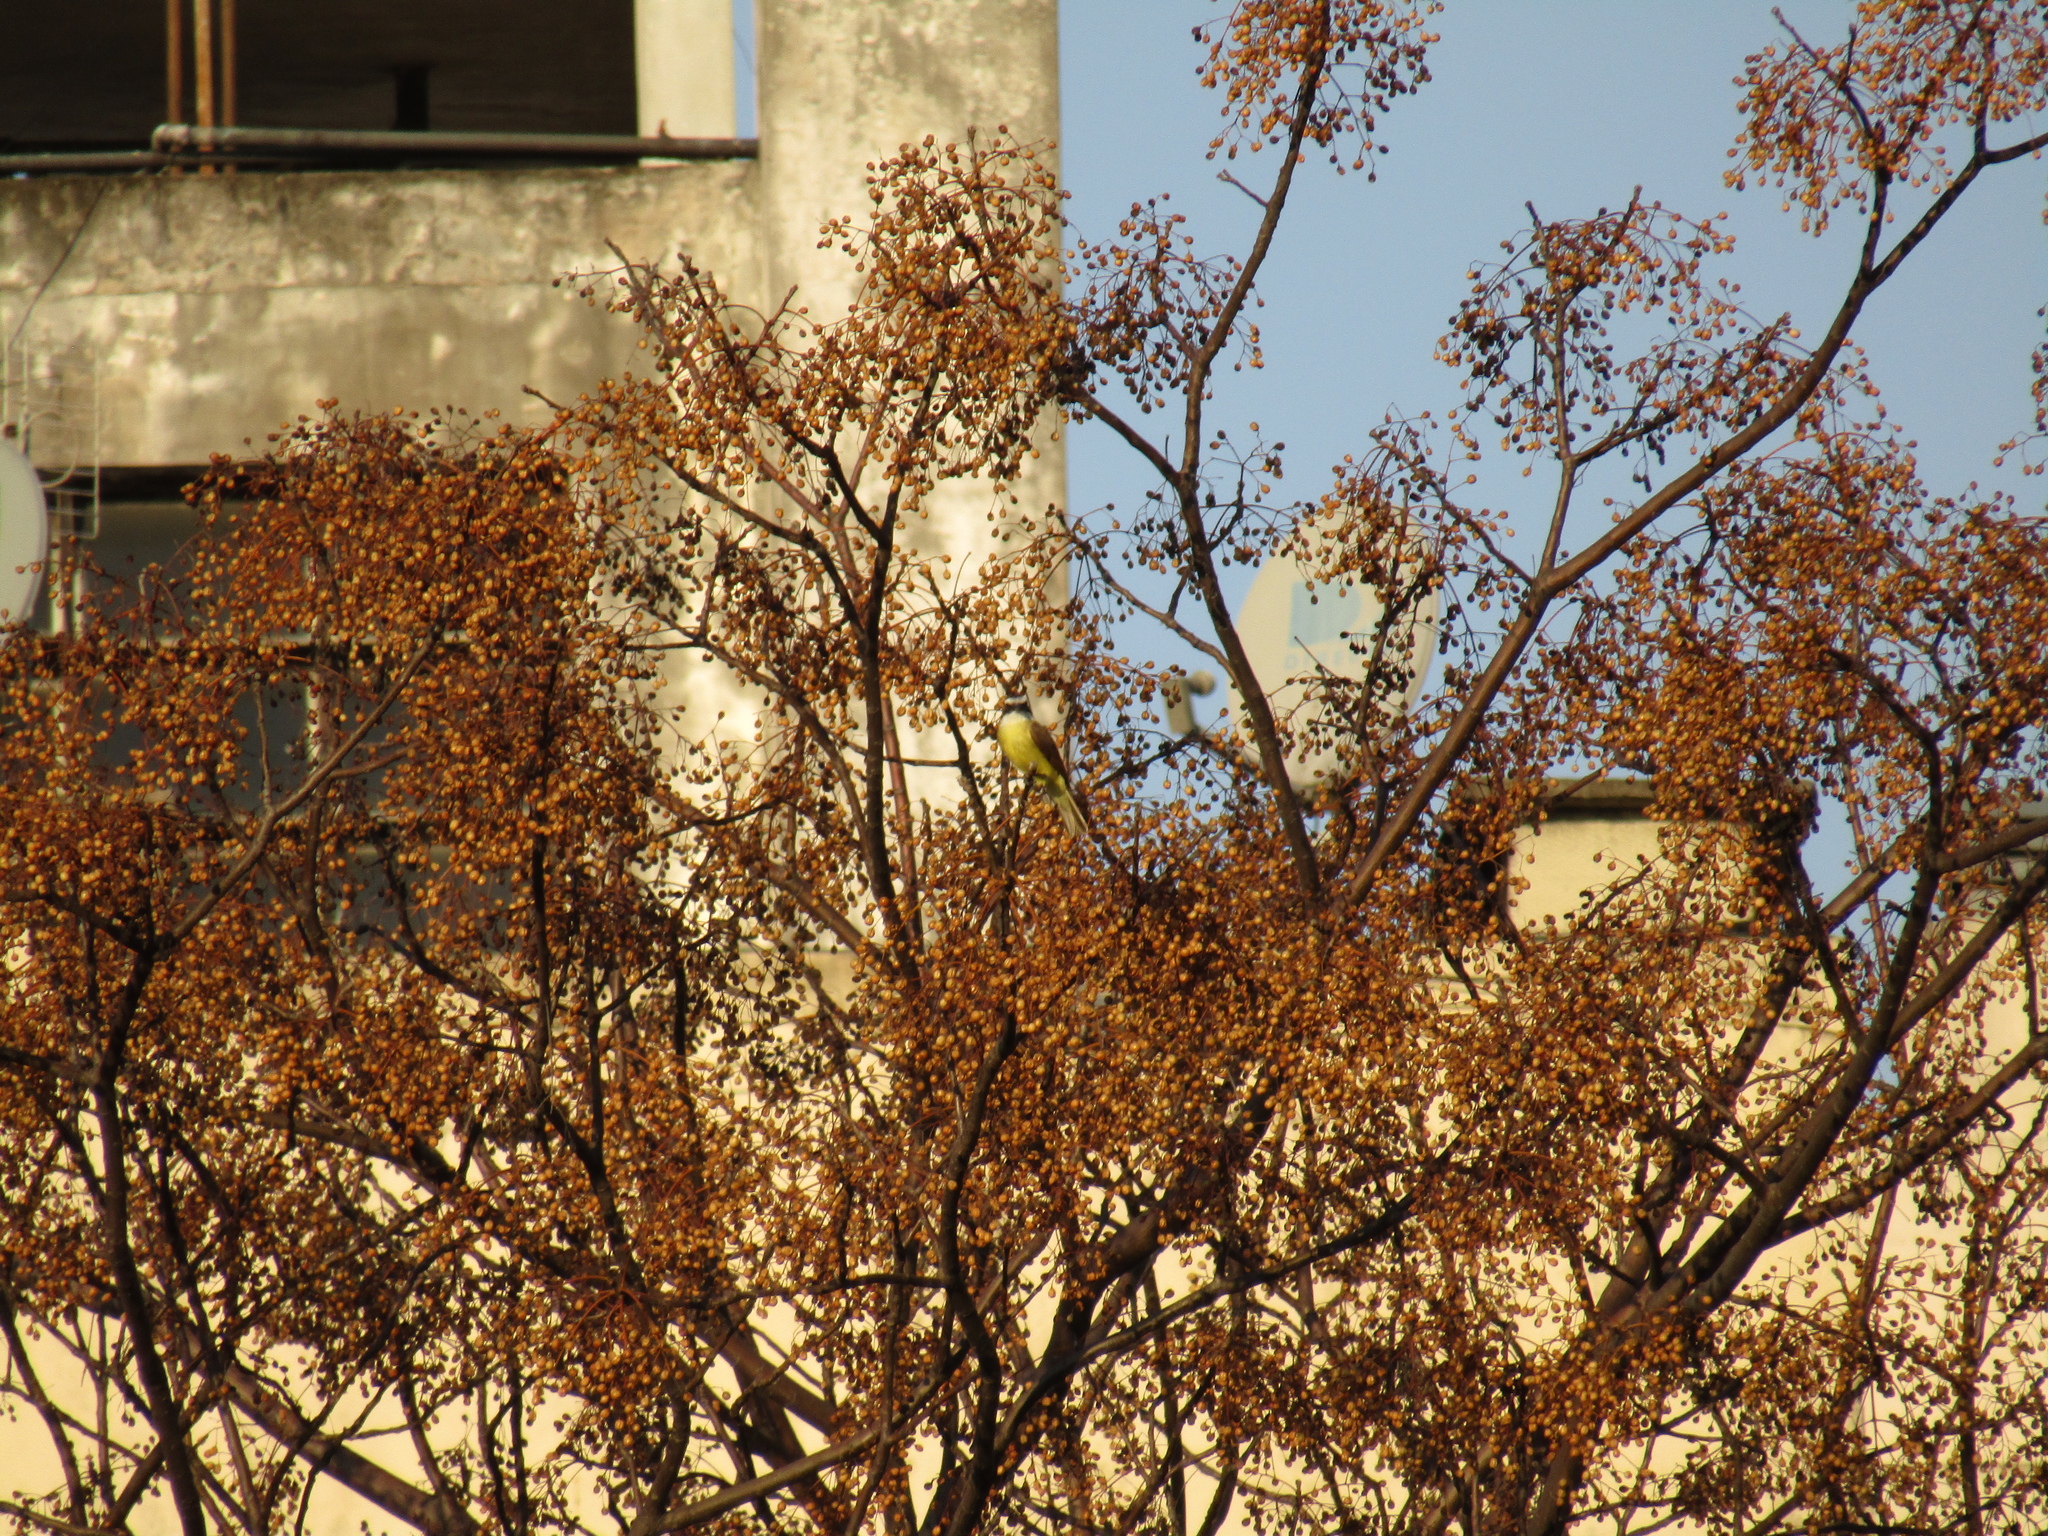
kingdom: Animalia
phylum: Chordata
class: Aves
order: Passeriformes
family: Tyrannidae
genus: Pitangus
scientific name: Pitangus sulphuratus
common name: Great kiskadee
